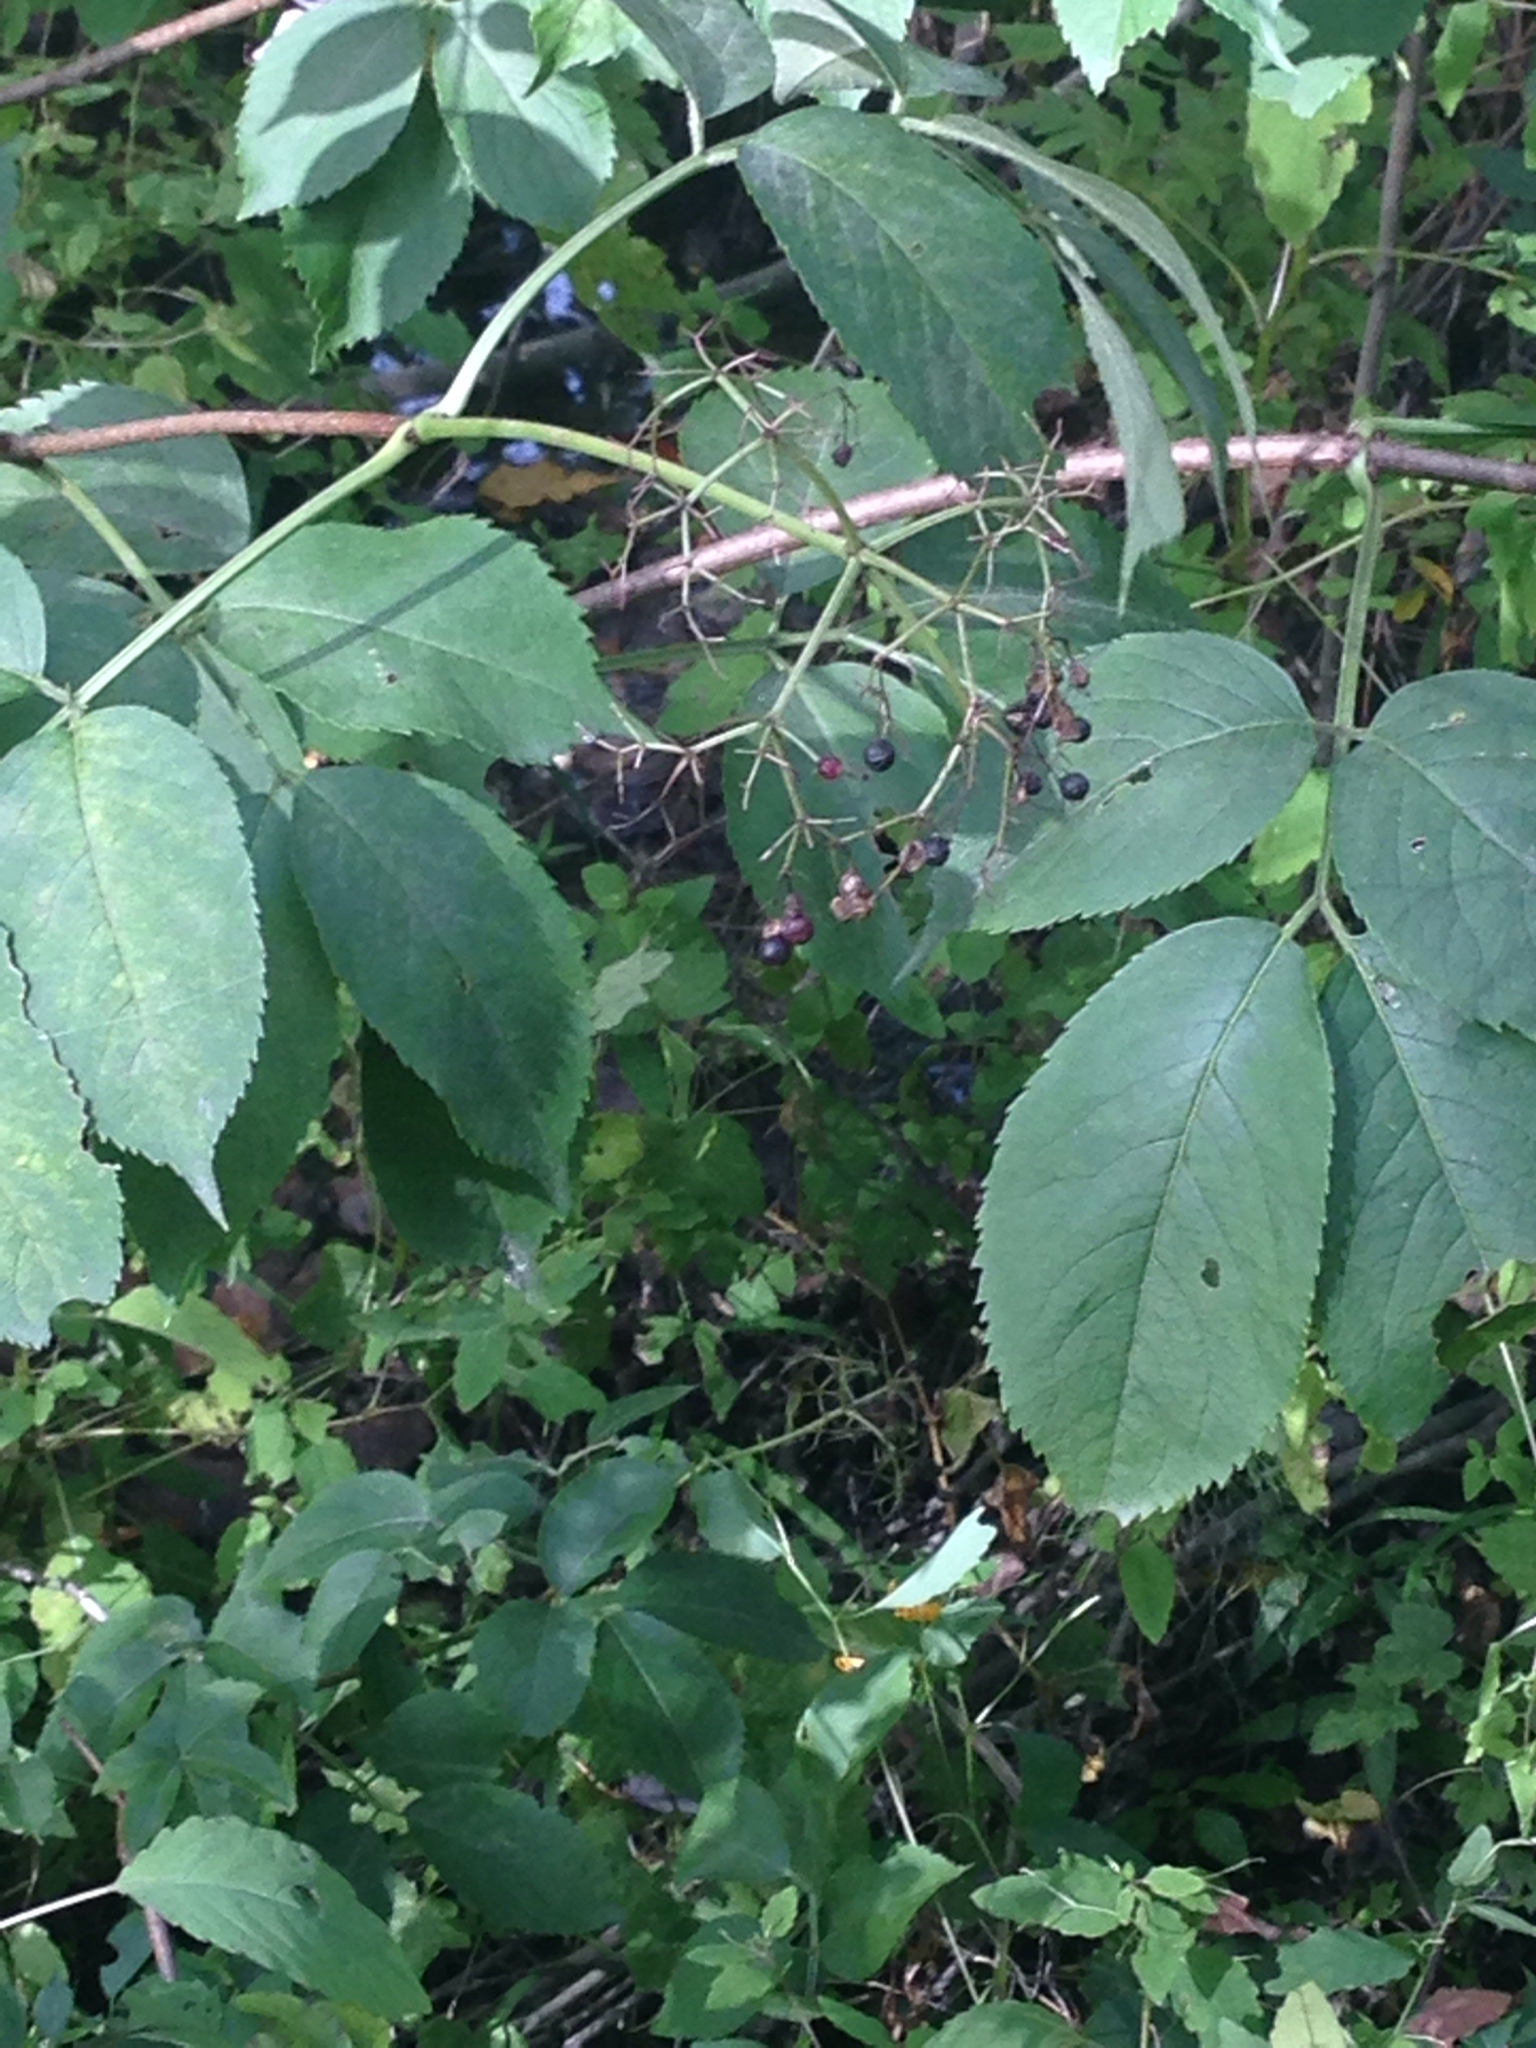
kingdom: Plantae
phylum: Tracheophyta
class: Magnoliopsida
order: Dipsacales
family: Viburnaceae
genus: Sambucus
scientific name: Sambucus canadensis
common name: American elder
